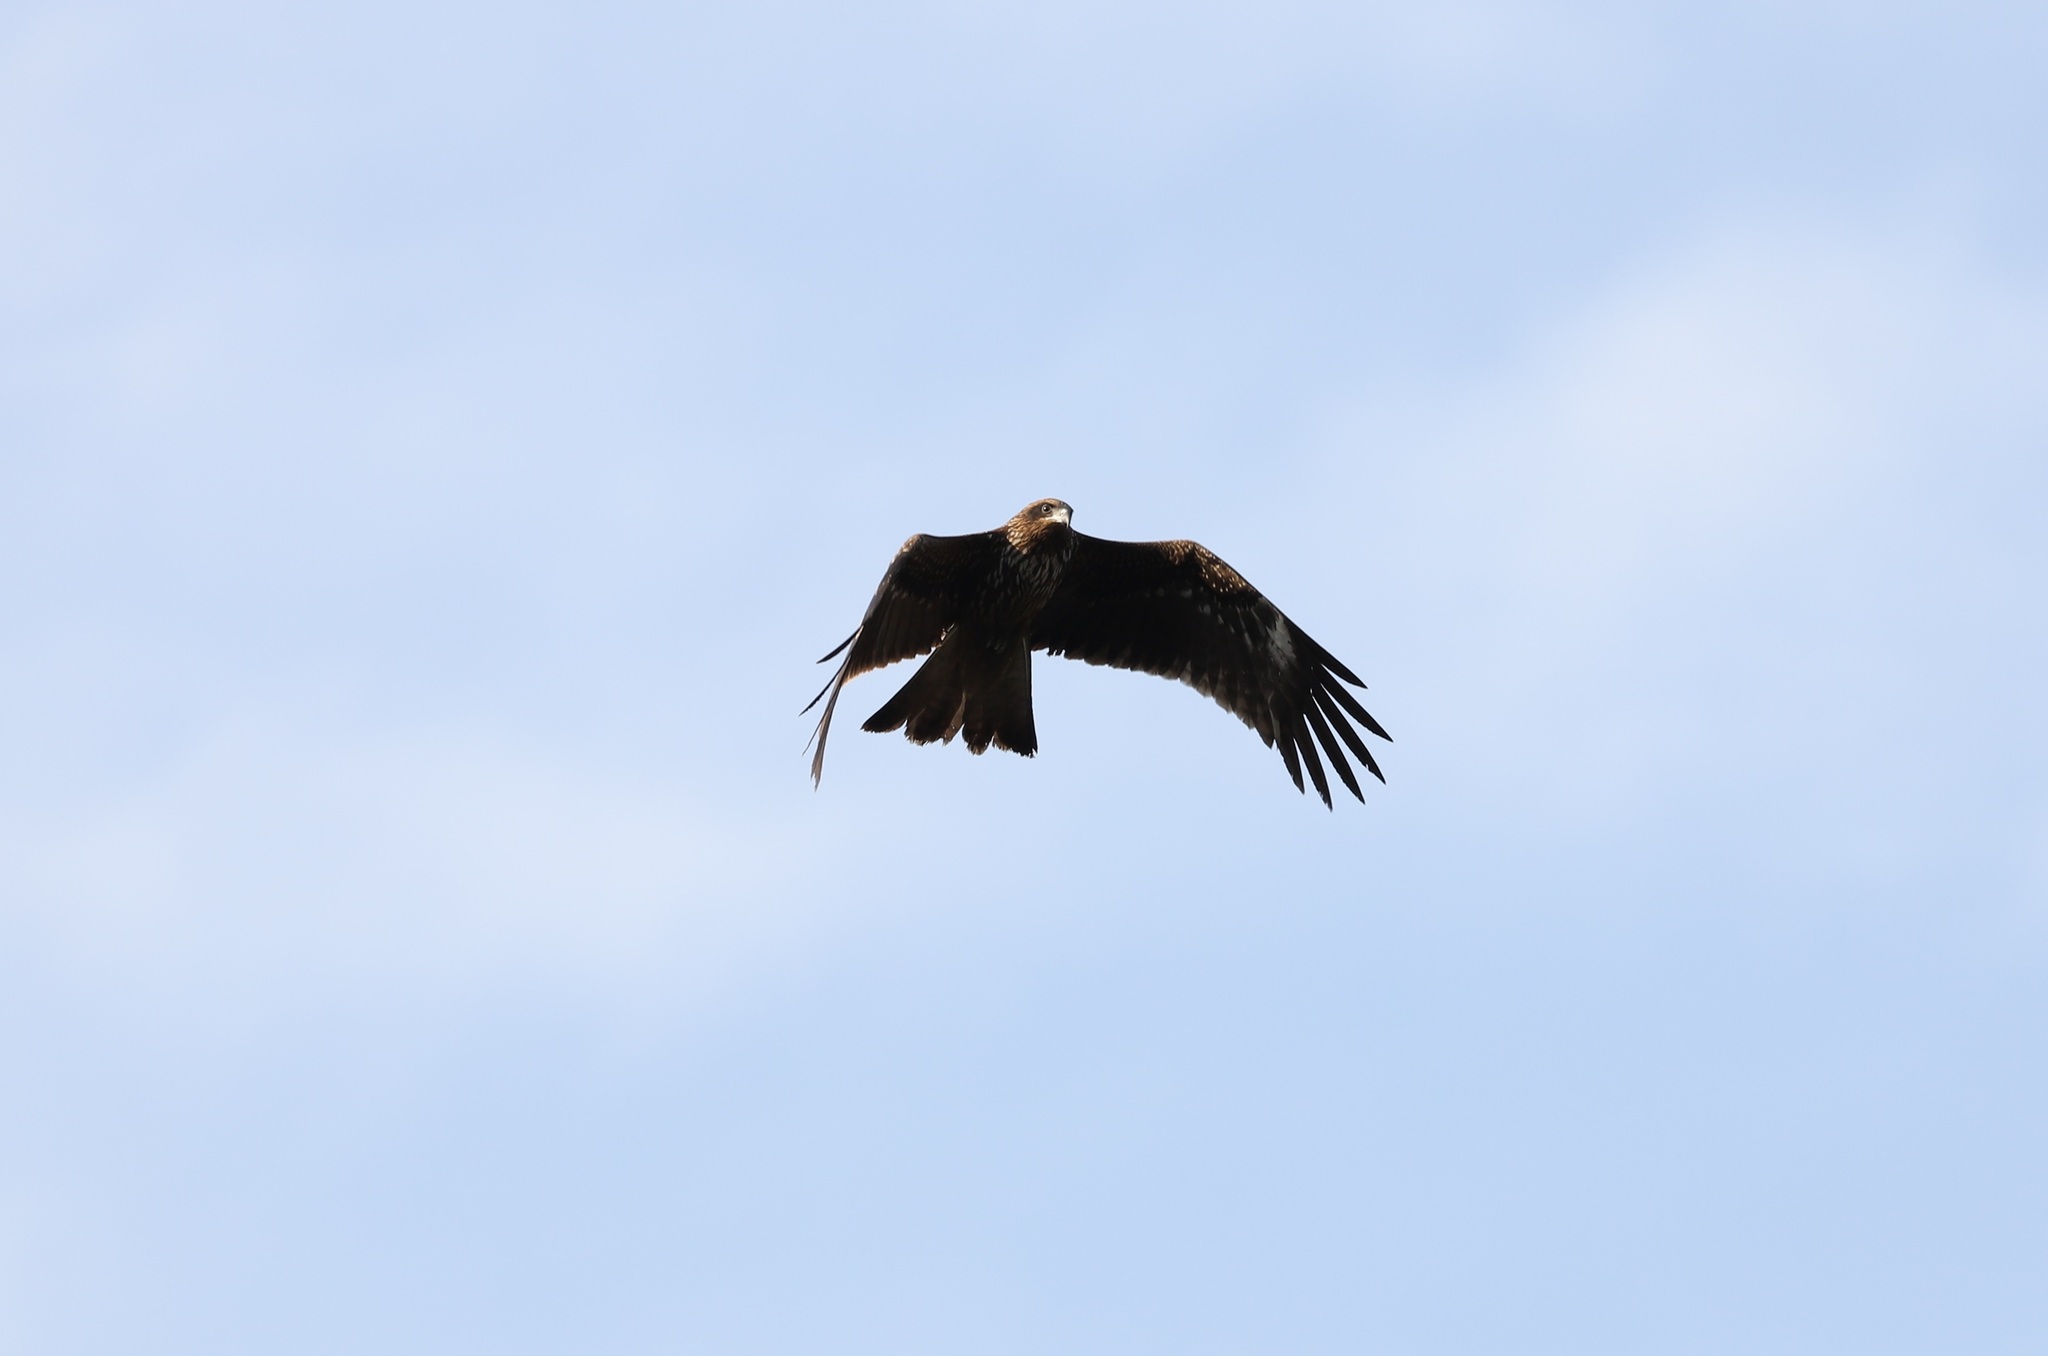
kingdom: Animalia
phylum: Chordata
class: Aves
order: Accipitriformes
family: Accipitridae
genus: Milvus
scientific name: Milvus migrans
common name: Black kite
